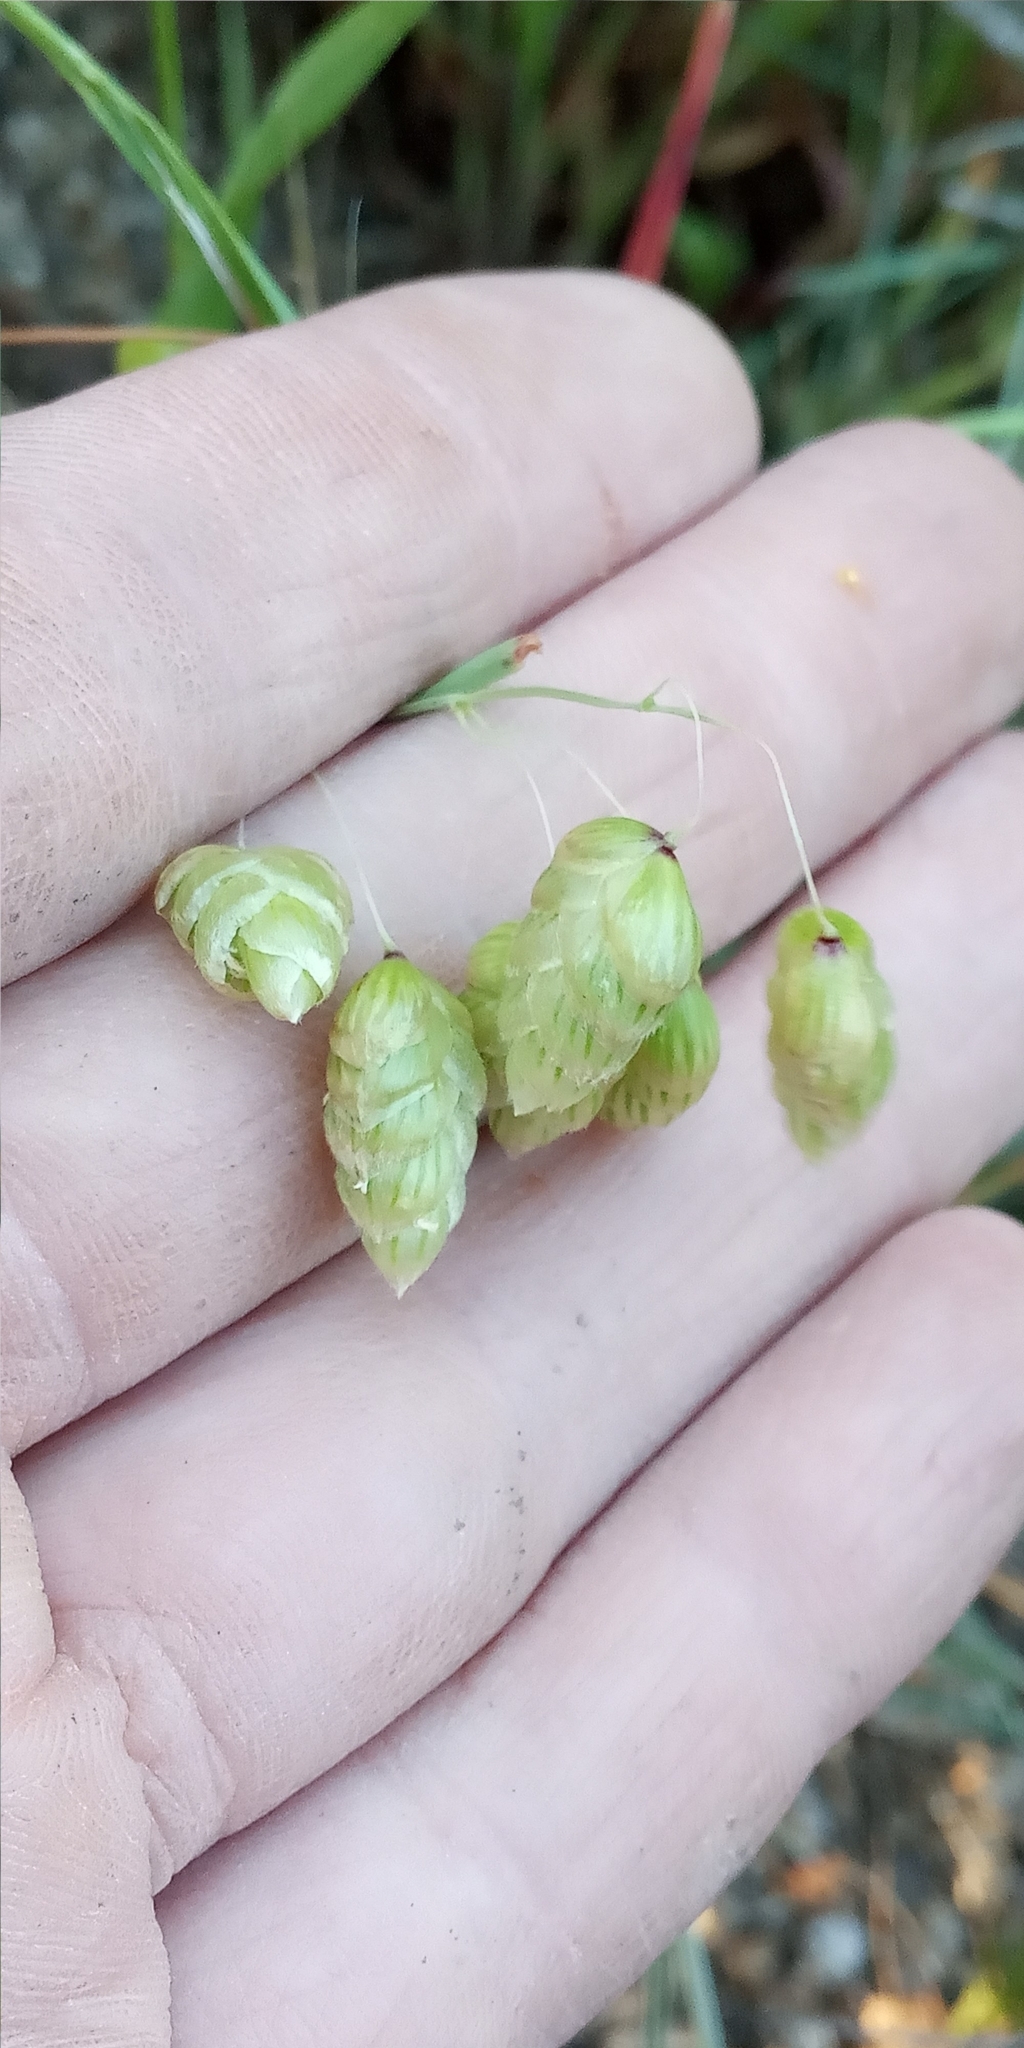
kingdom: Plantae
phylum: Tracheophyta
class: Liliopsida
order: Poales
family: Poaceae
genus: Briza
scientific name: Briza maxima
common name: Big quakinggrass
